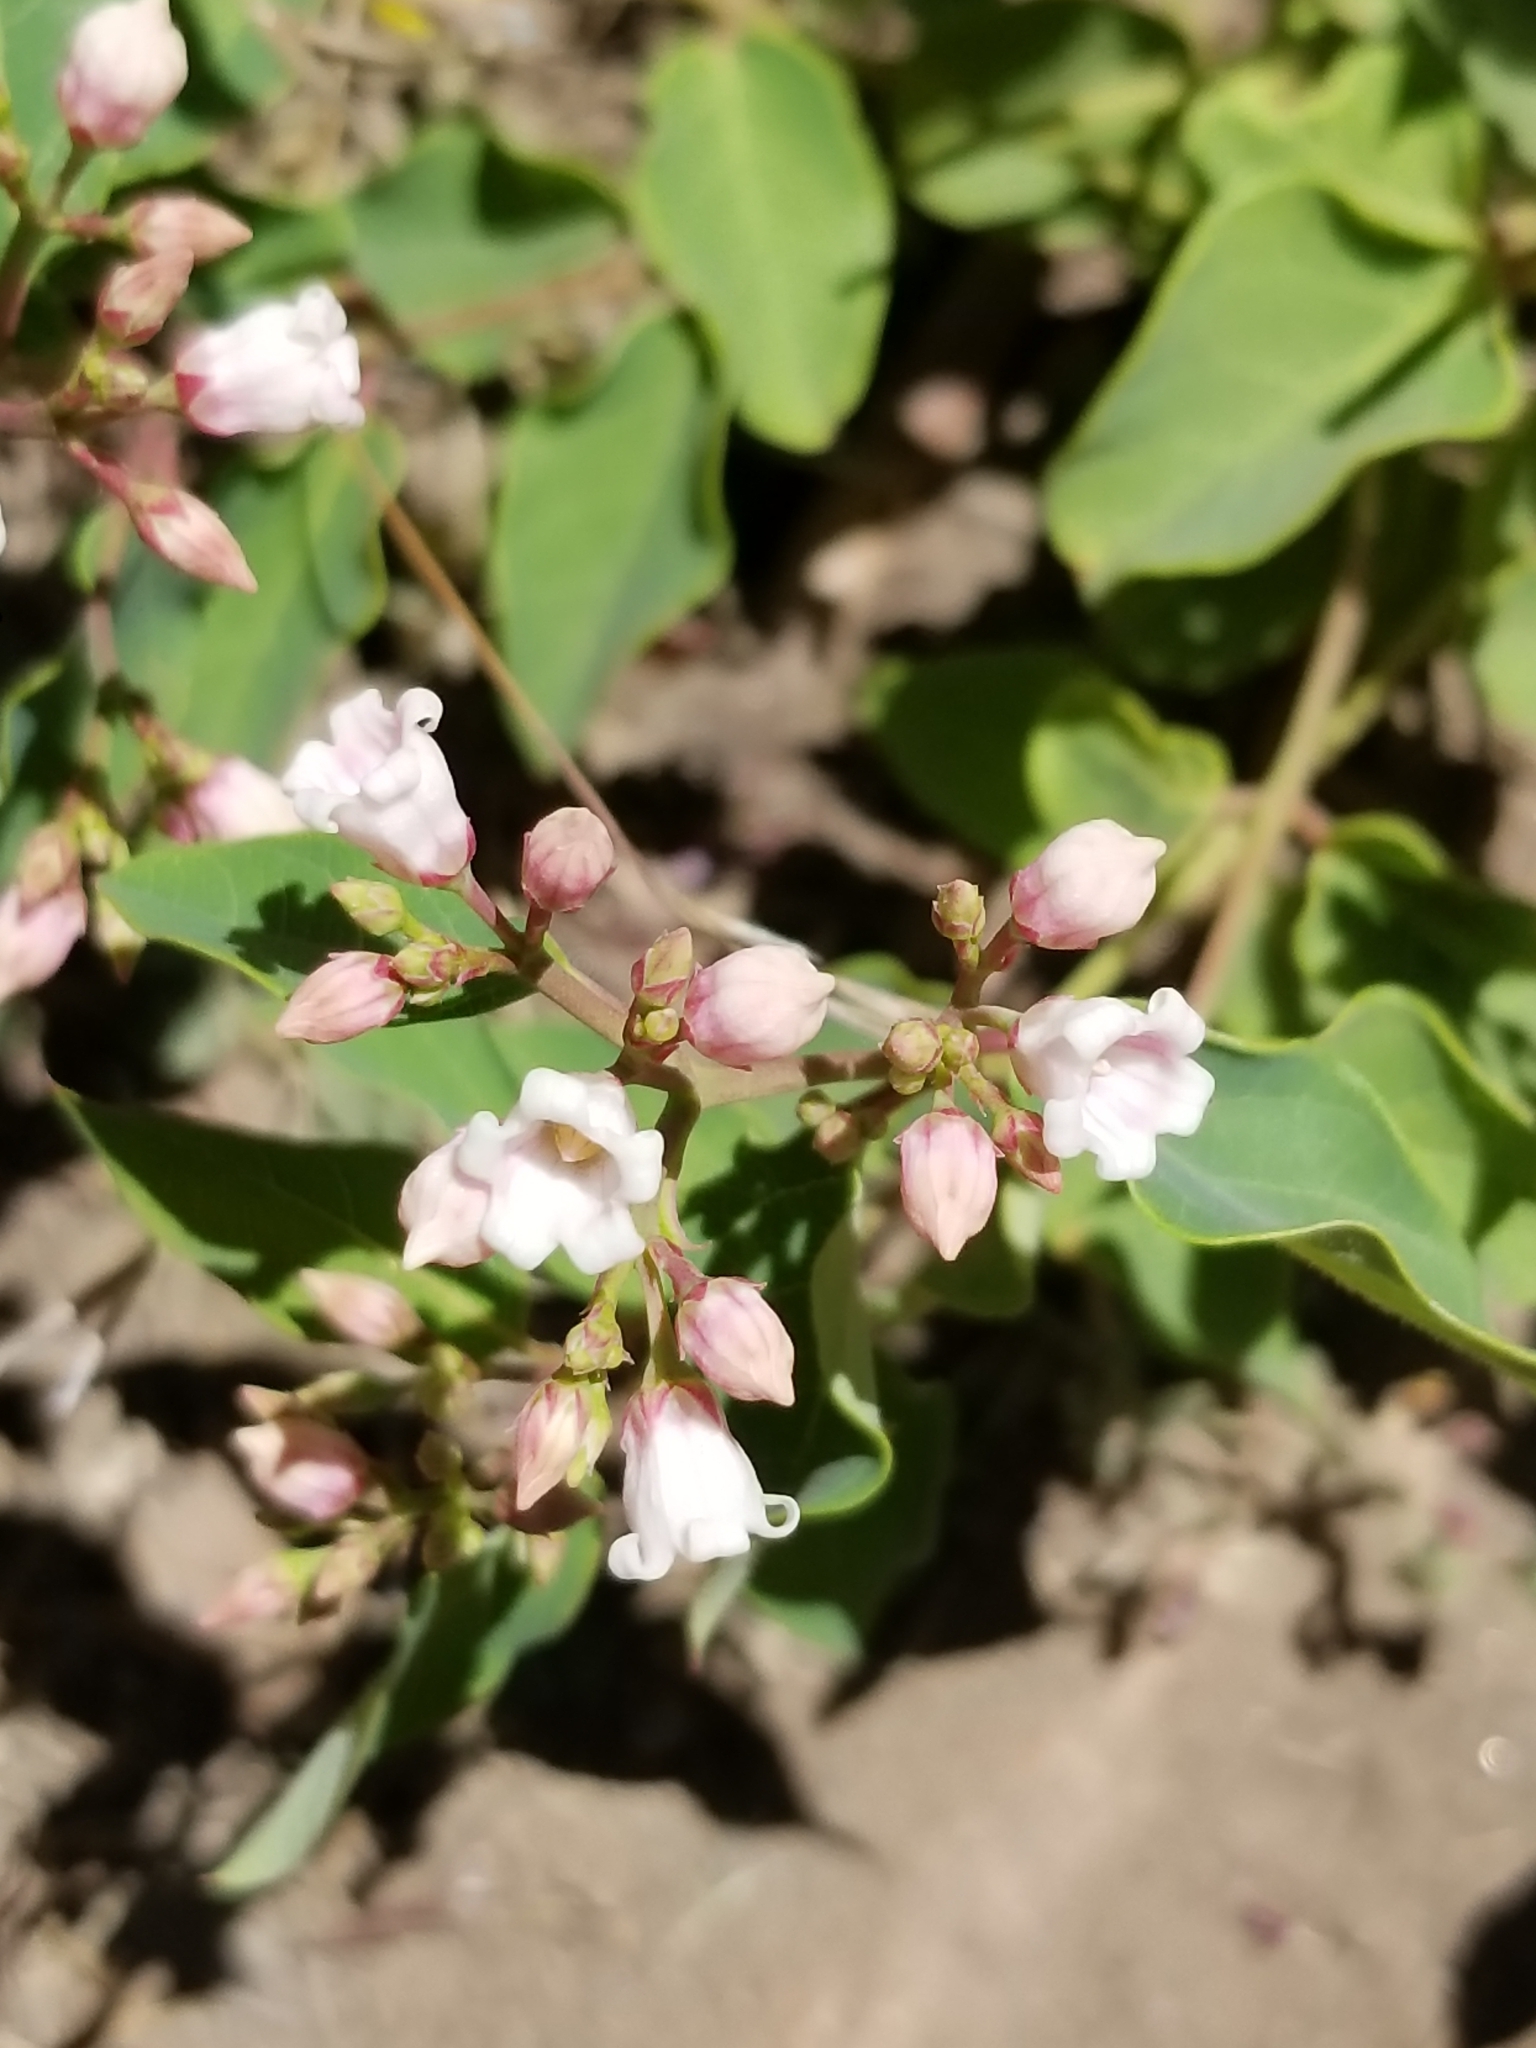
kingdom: Plantae
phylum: Tracheophyta
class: Magnoliopsida
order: Gentianales
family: Apocynaceae
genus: Apocynum
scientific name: Apocynum androsaemifolium
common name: Spreading dogbane
